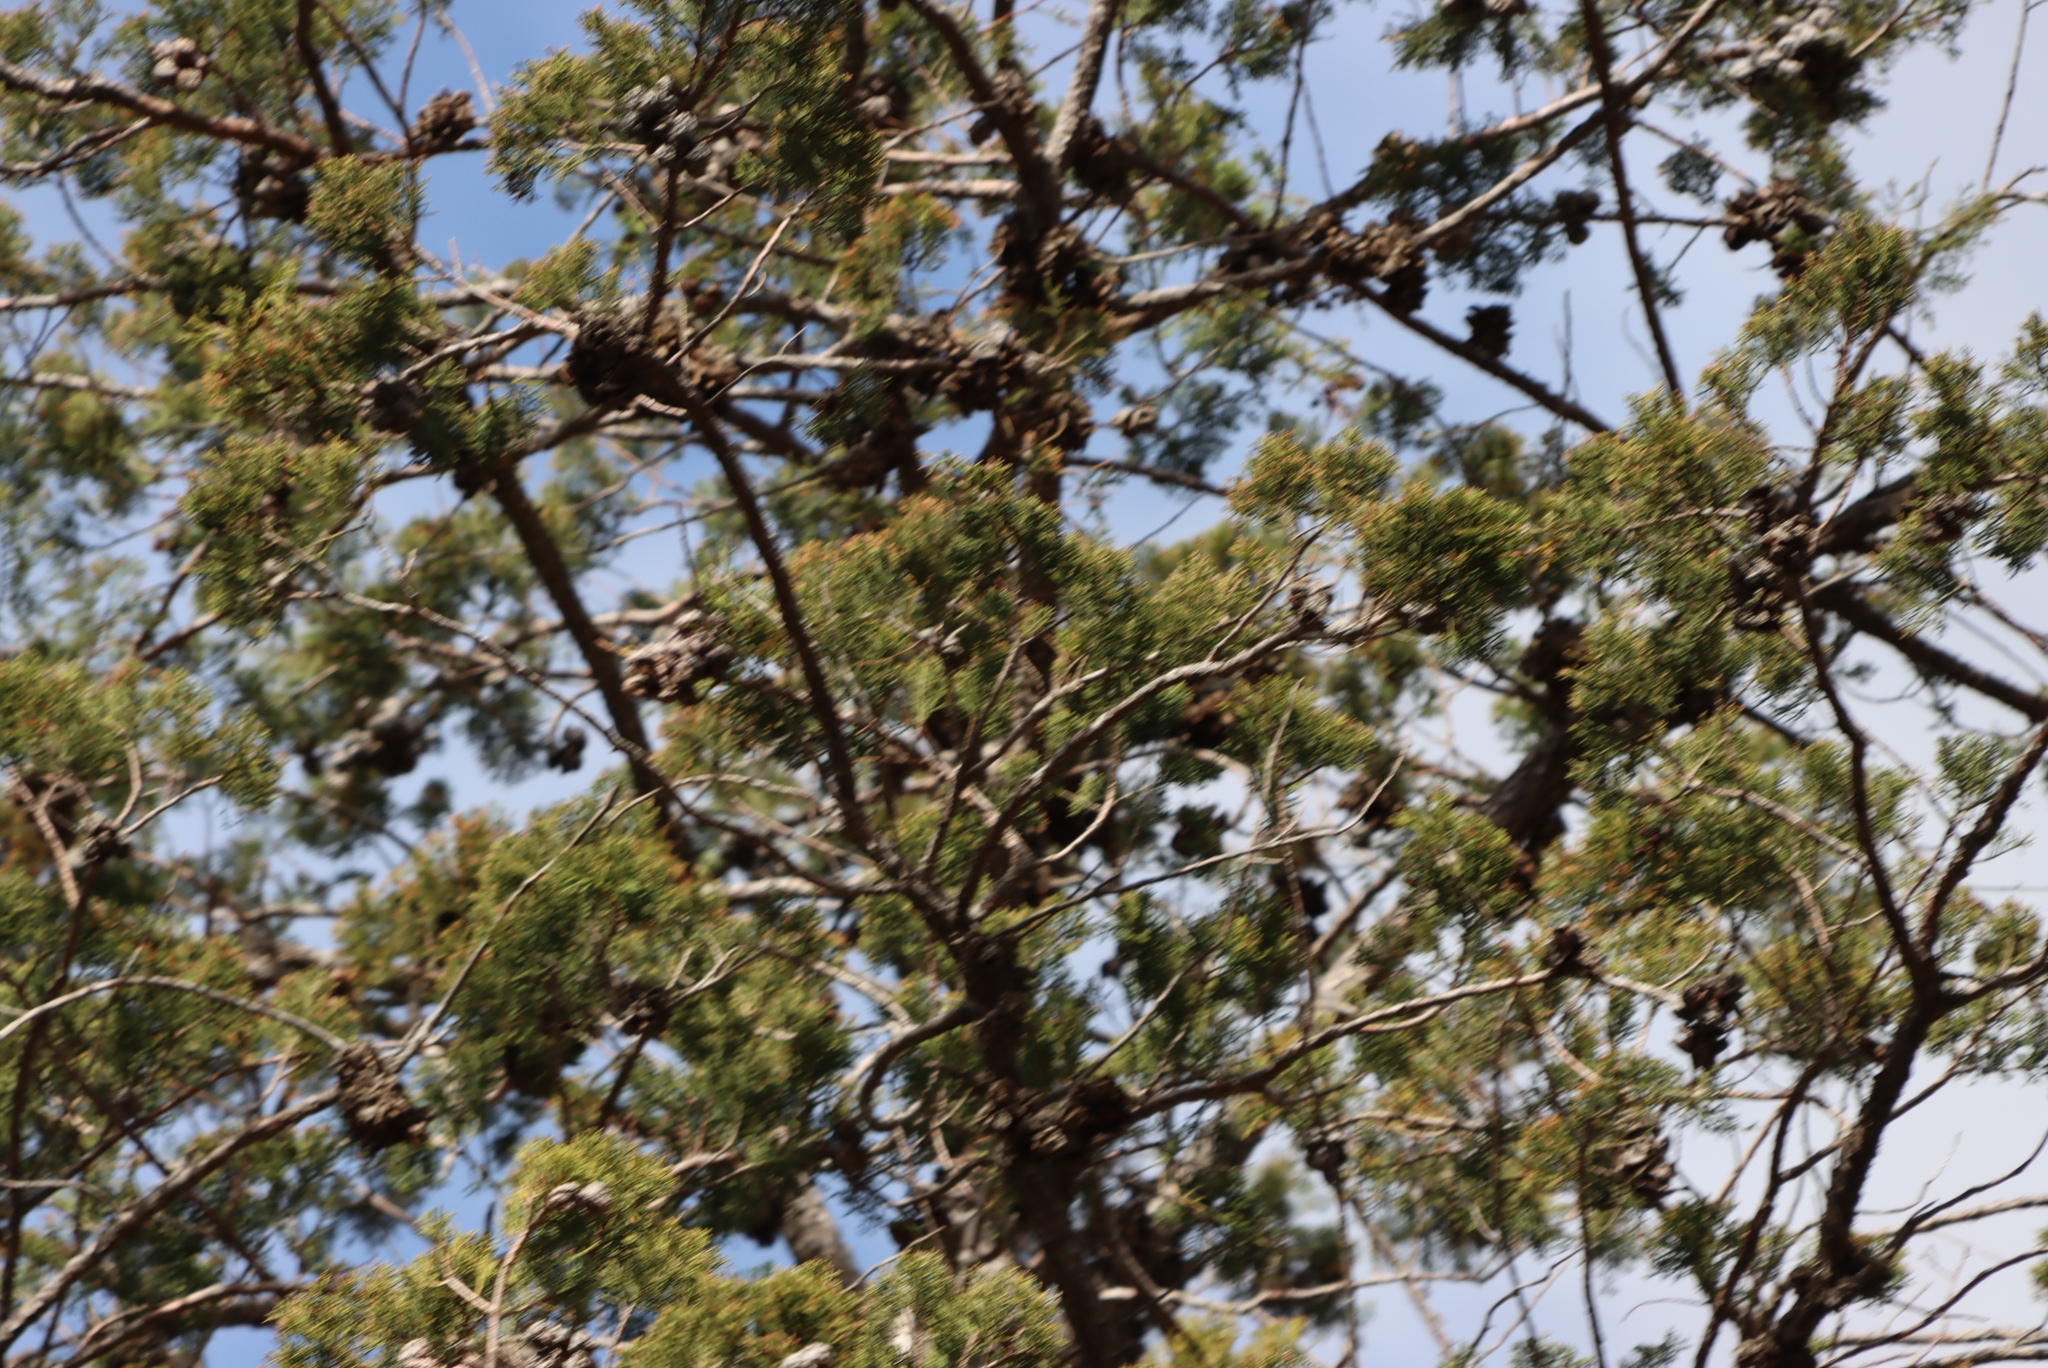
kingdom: Plantae
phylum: Tracheophyta
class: Pinopsida
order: Pinales
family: Cupressaceae
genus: Widdringtonia
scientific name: Widdringtonia schwarzii
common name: Baviaans cedar
